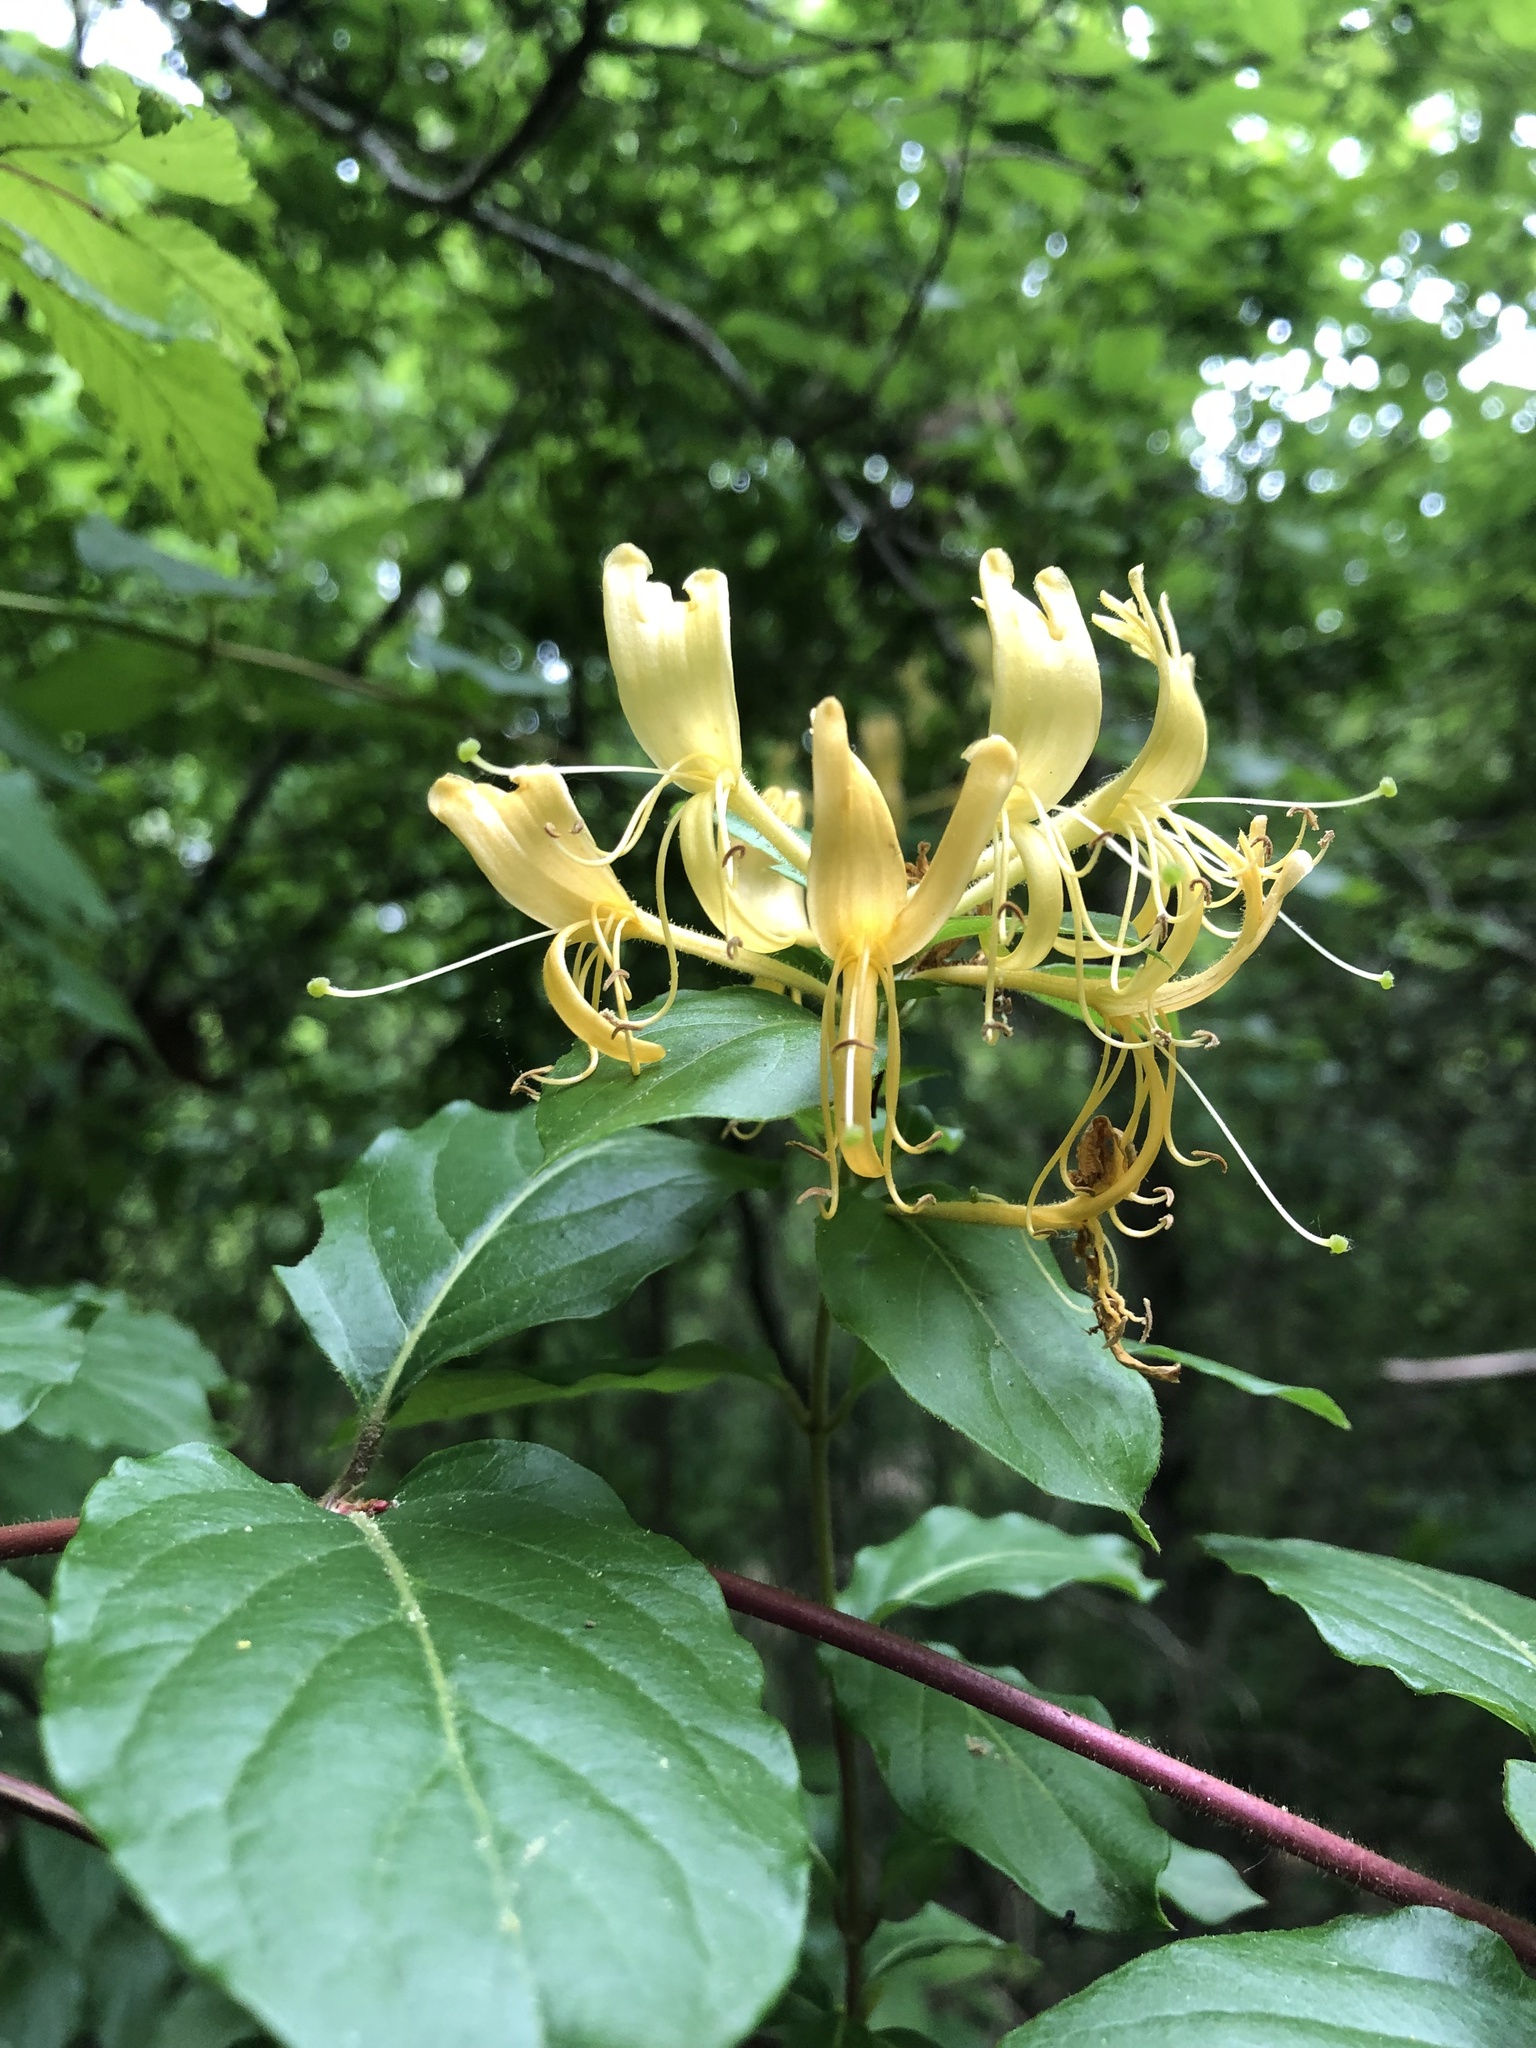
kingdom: Plantae
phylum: Tracheophyta
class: Magnoliopsida
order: Dipsacales
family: Caprifoliaceae
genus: Lonicera
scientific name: Lonicera japonica
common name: Japanese honeysuckle
